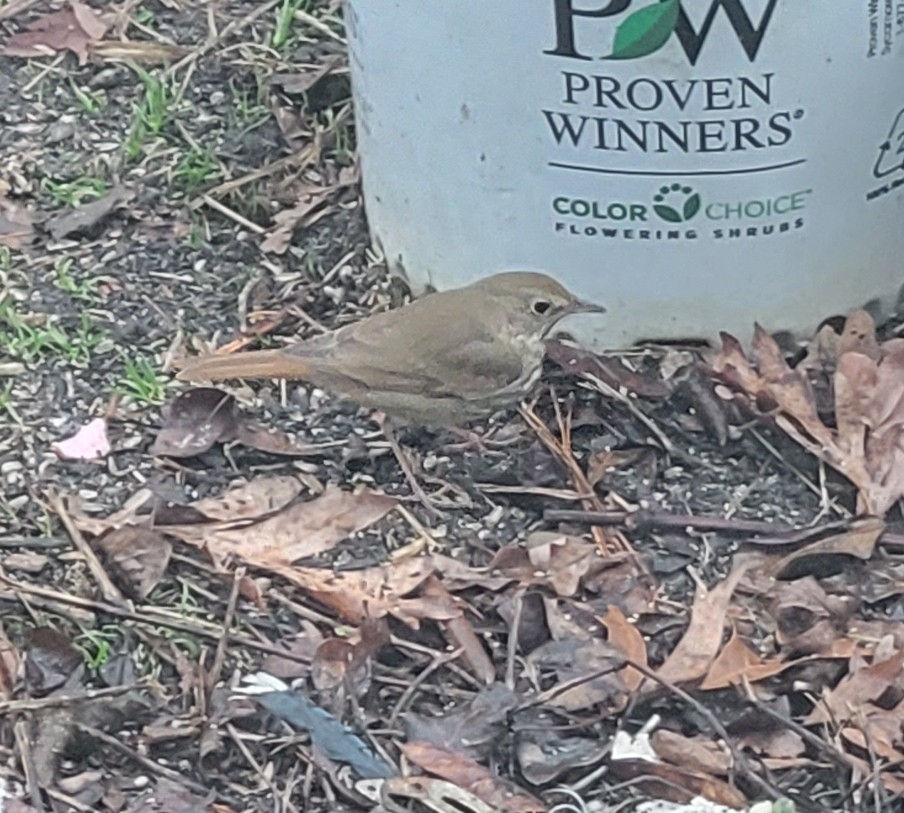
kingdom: Animalia
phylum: Chordata
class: Aves
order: Passeriformes
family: Turdidae
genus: Catharus
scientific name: Catharus guttatus
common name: Hermit thrush
